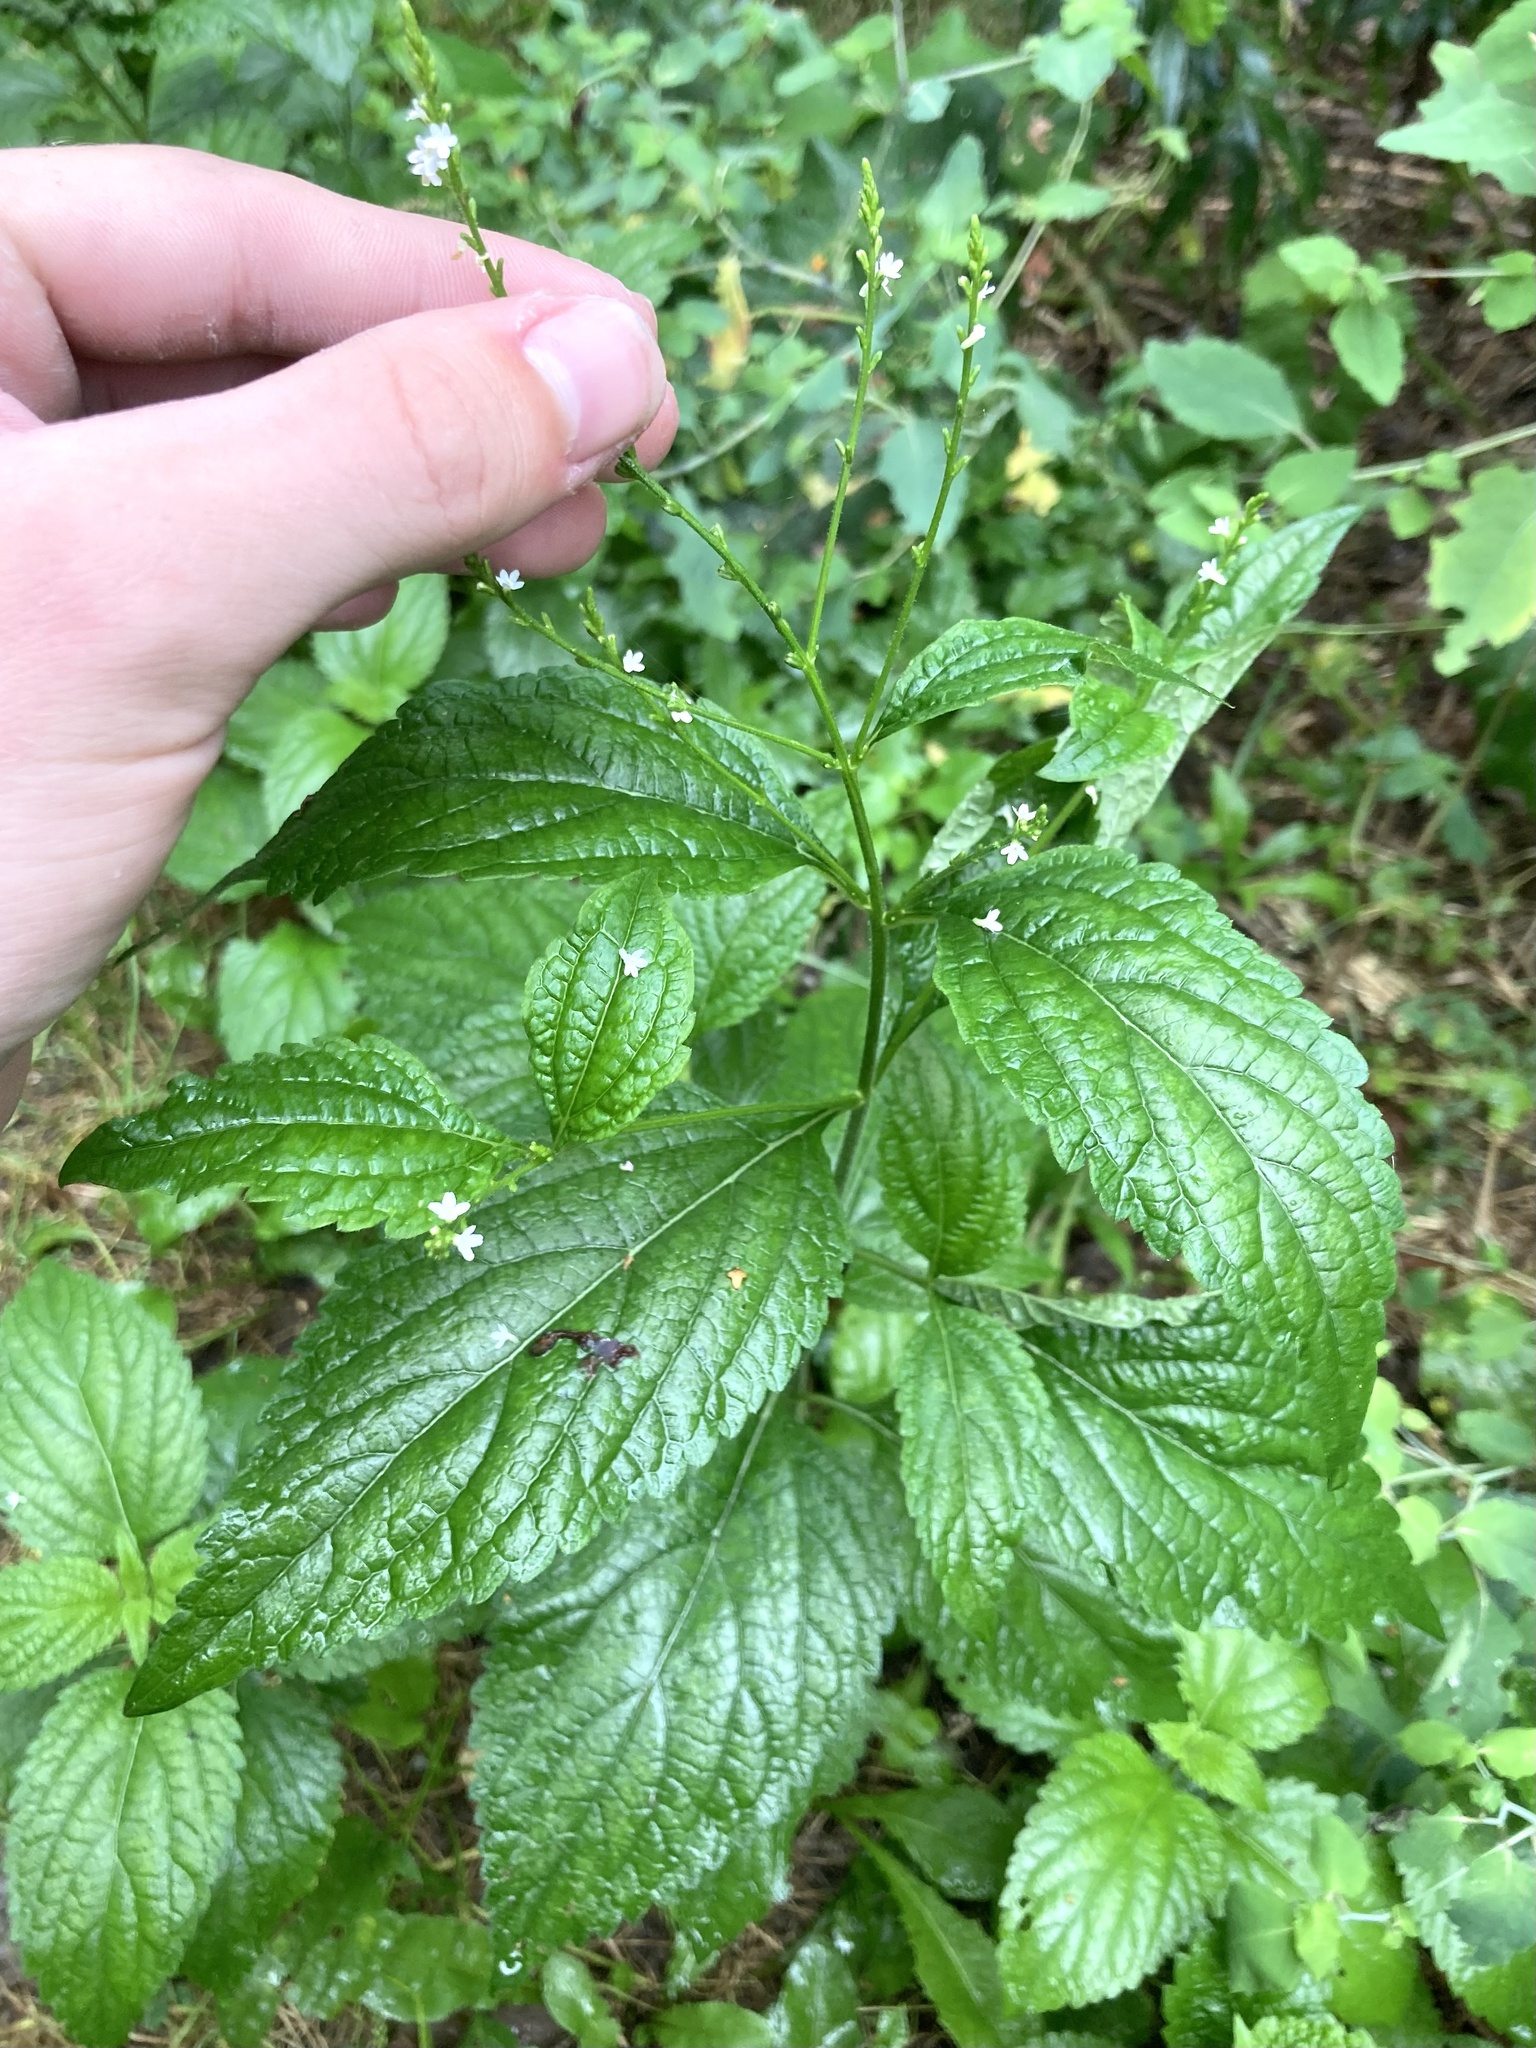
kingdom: Plantae
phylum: Tracheophyta
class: Magnoliopsida
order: Lamiales
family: Verbenaceae
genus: Verbena
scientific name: Verbena urticifolia
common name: Nettle-leaved vervain
